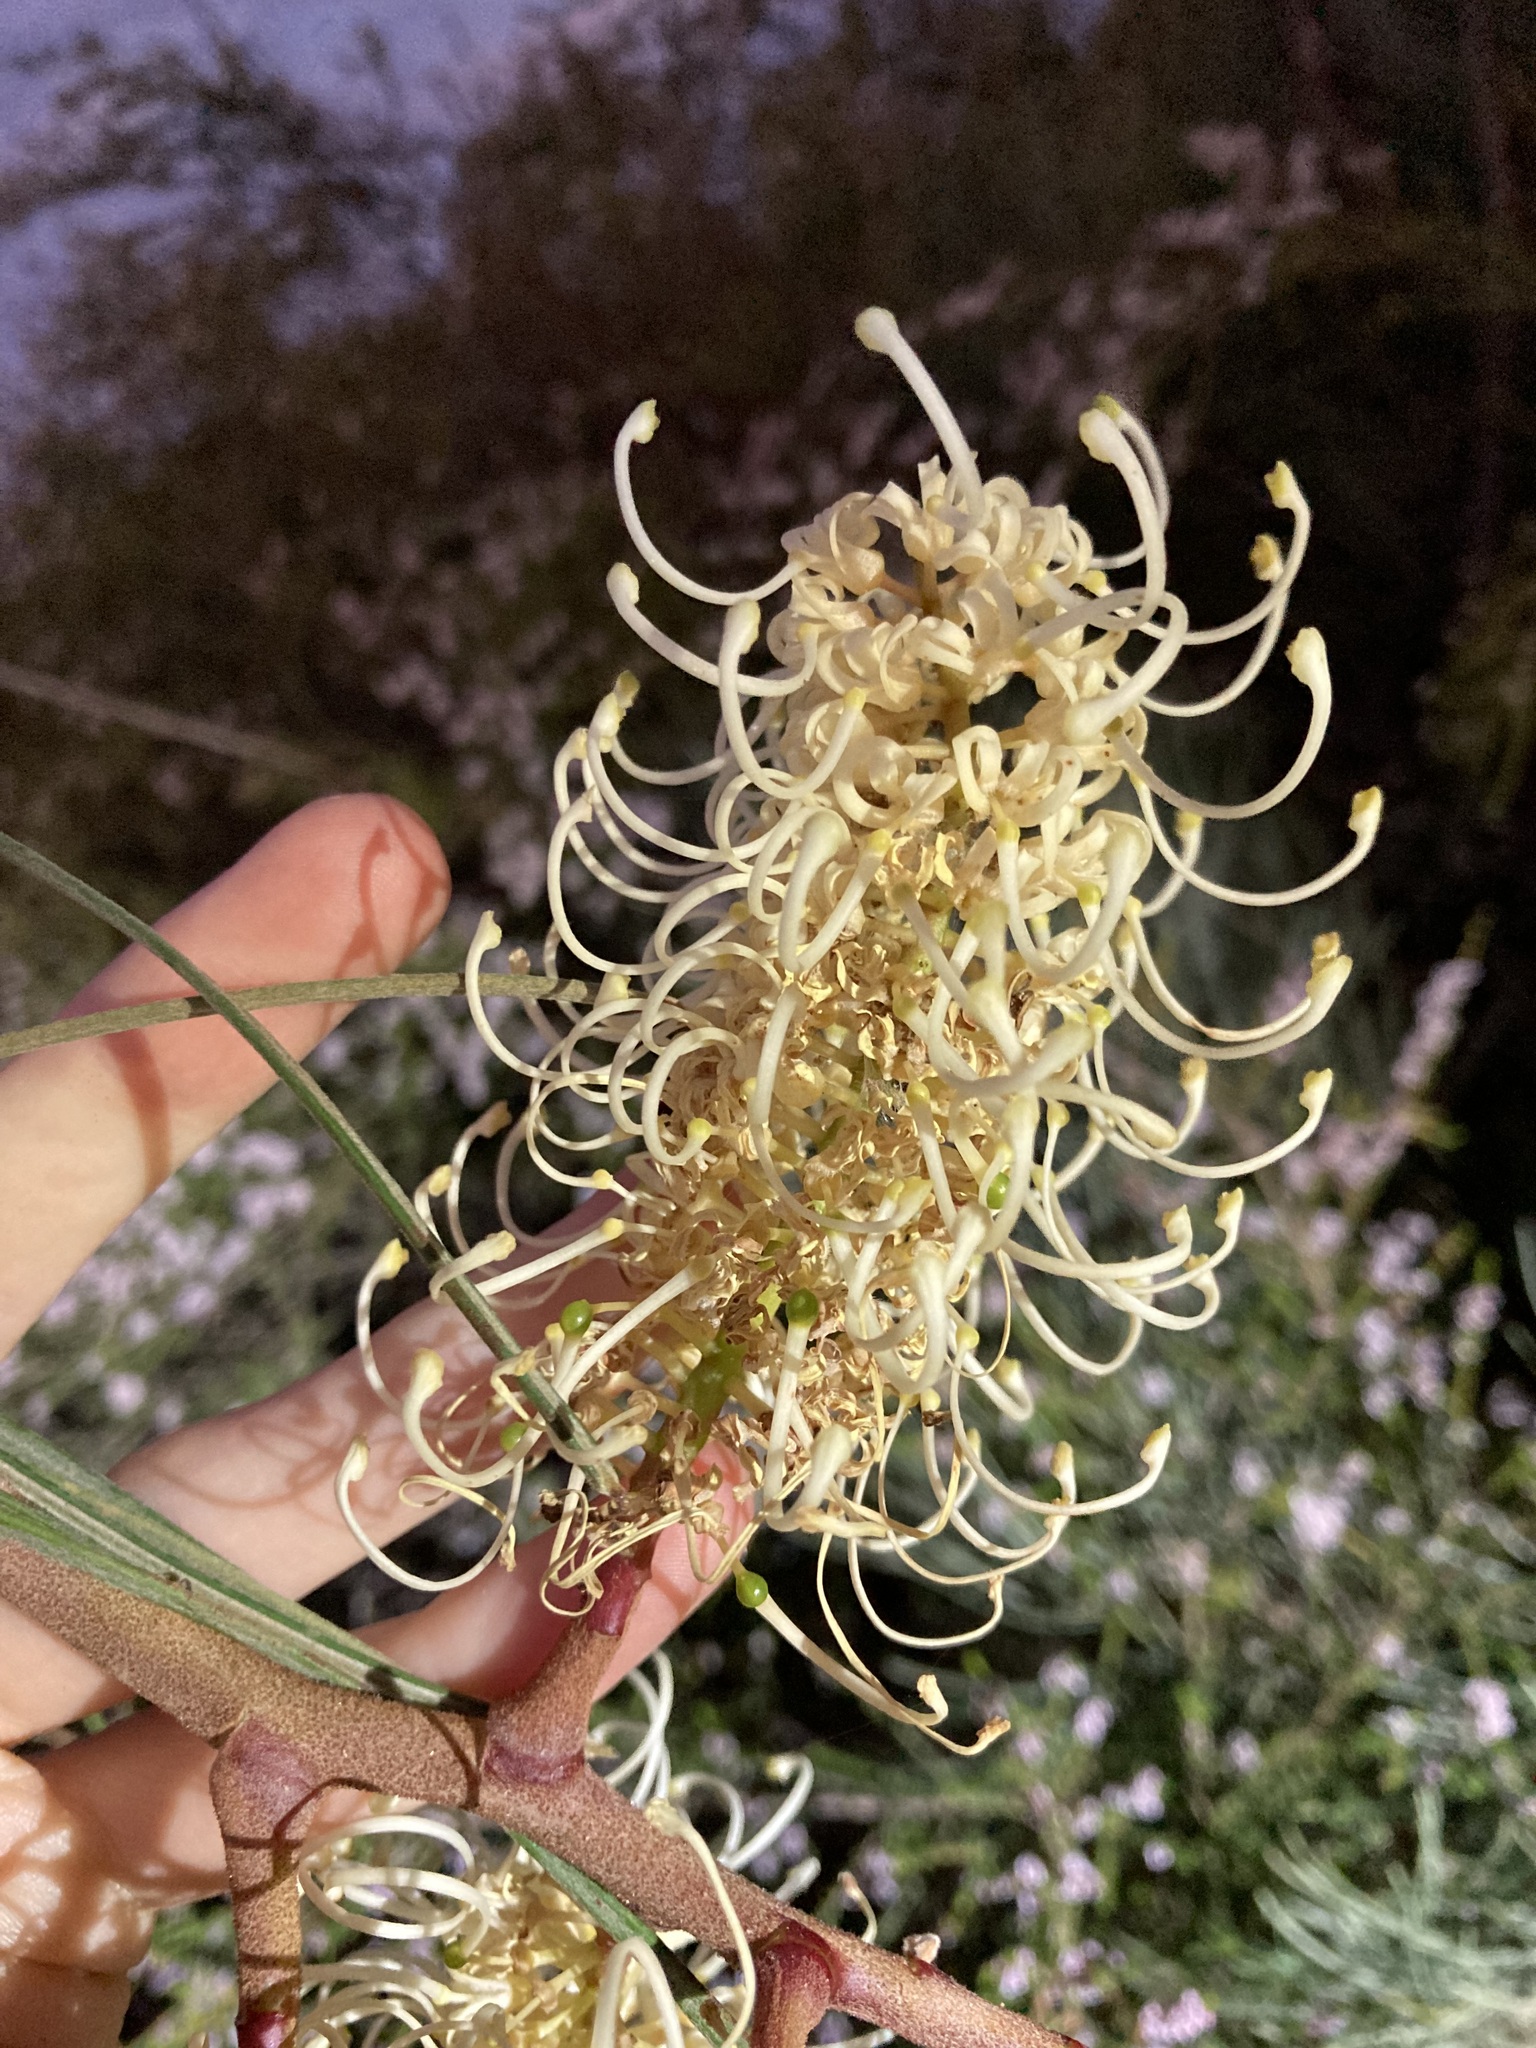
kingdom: Plantae
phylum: Tracheophyta
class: Magnoliopsida
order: Proteales
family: Proteaceae
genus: Grevillea
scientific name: Grevillea leucopteris
